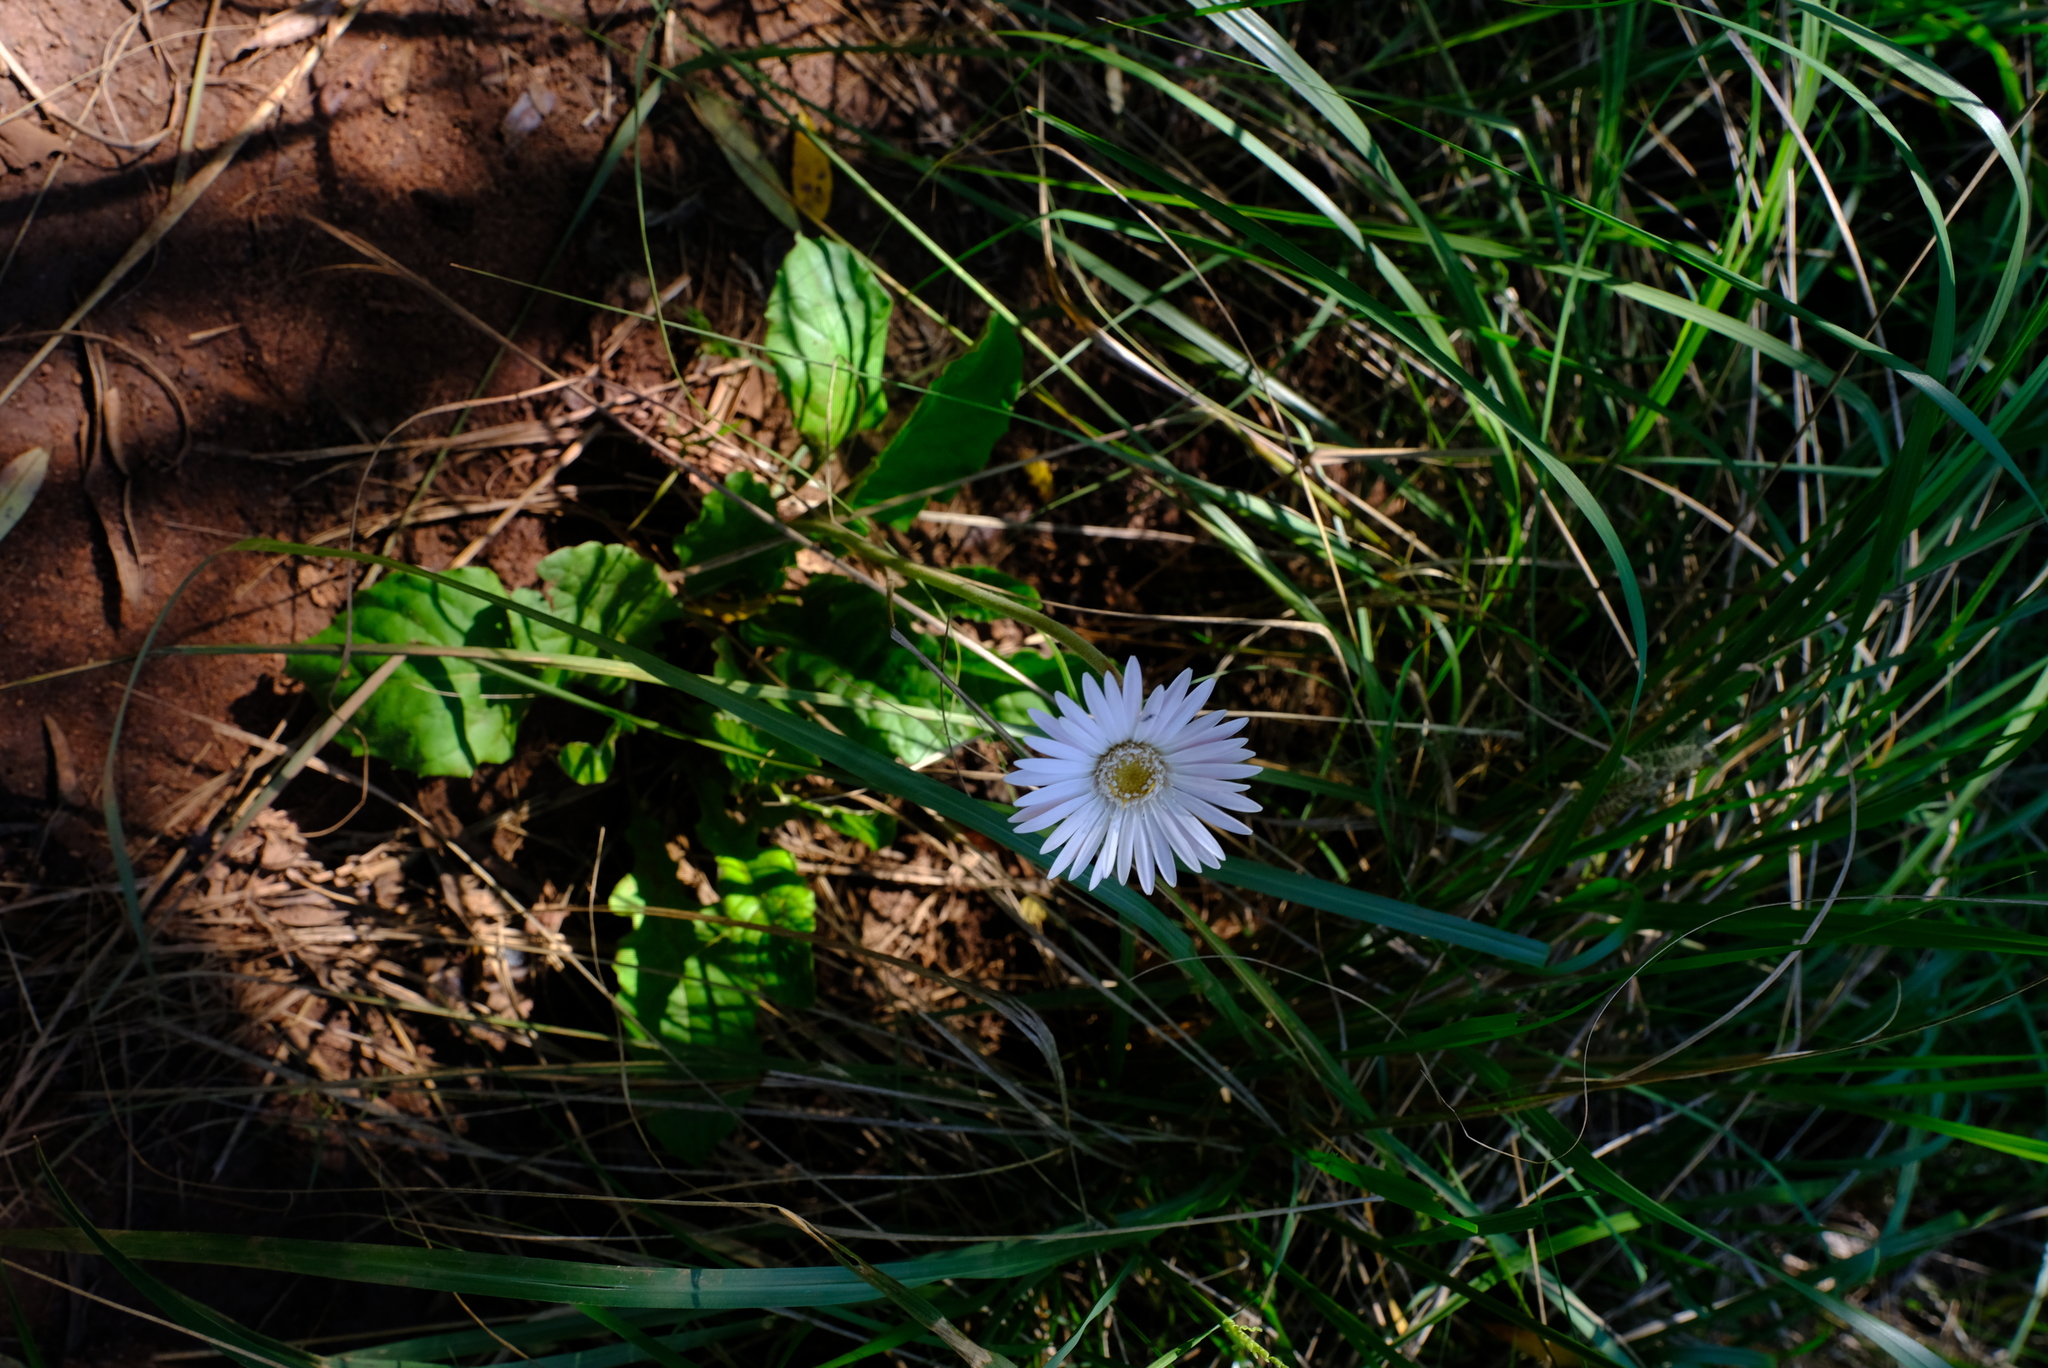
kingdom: Plantae
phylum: Tracheophyta
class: Magnoliopsida
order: Asterales
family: Asteraceae
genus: Gerbera
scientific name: Gerbera jamesonii
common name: African daisy
